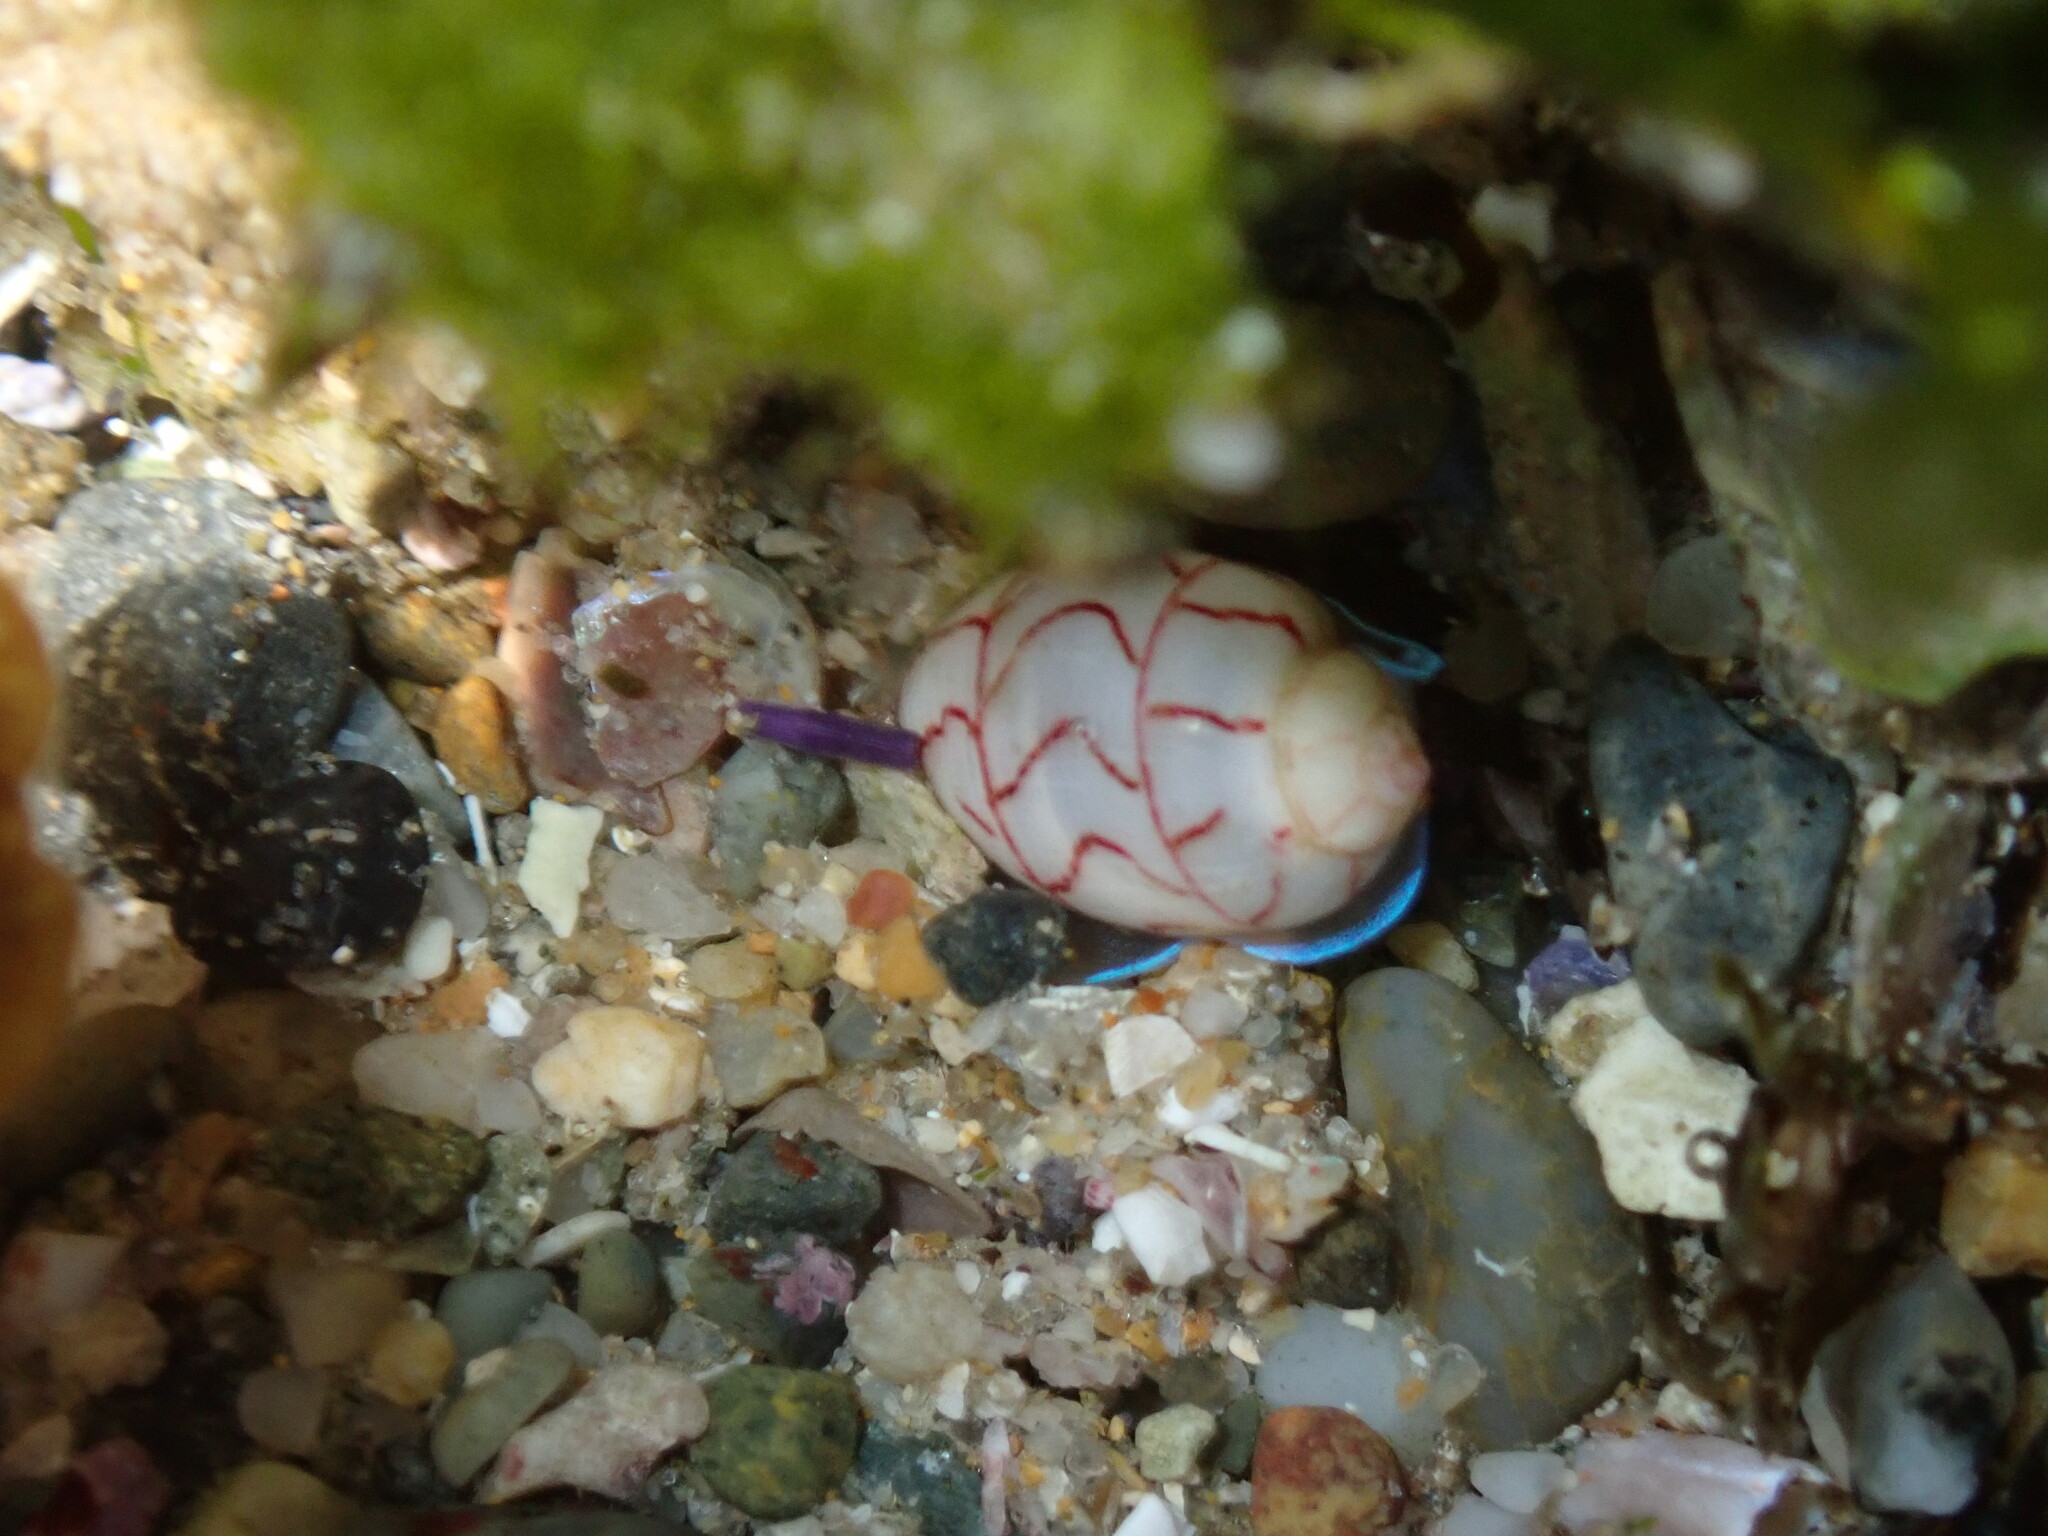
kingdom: Animalia
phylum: Mollusca
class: Gastropoda
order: Cephalaspidea
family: Aplustridae
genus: Bullina
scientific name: Bullina lineata
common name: Lined bubble snail
